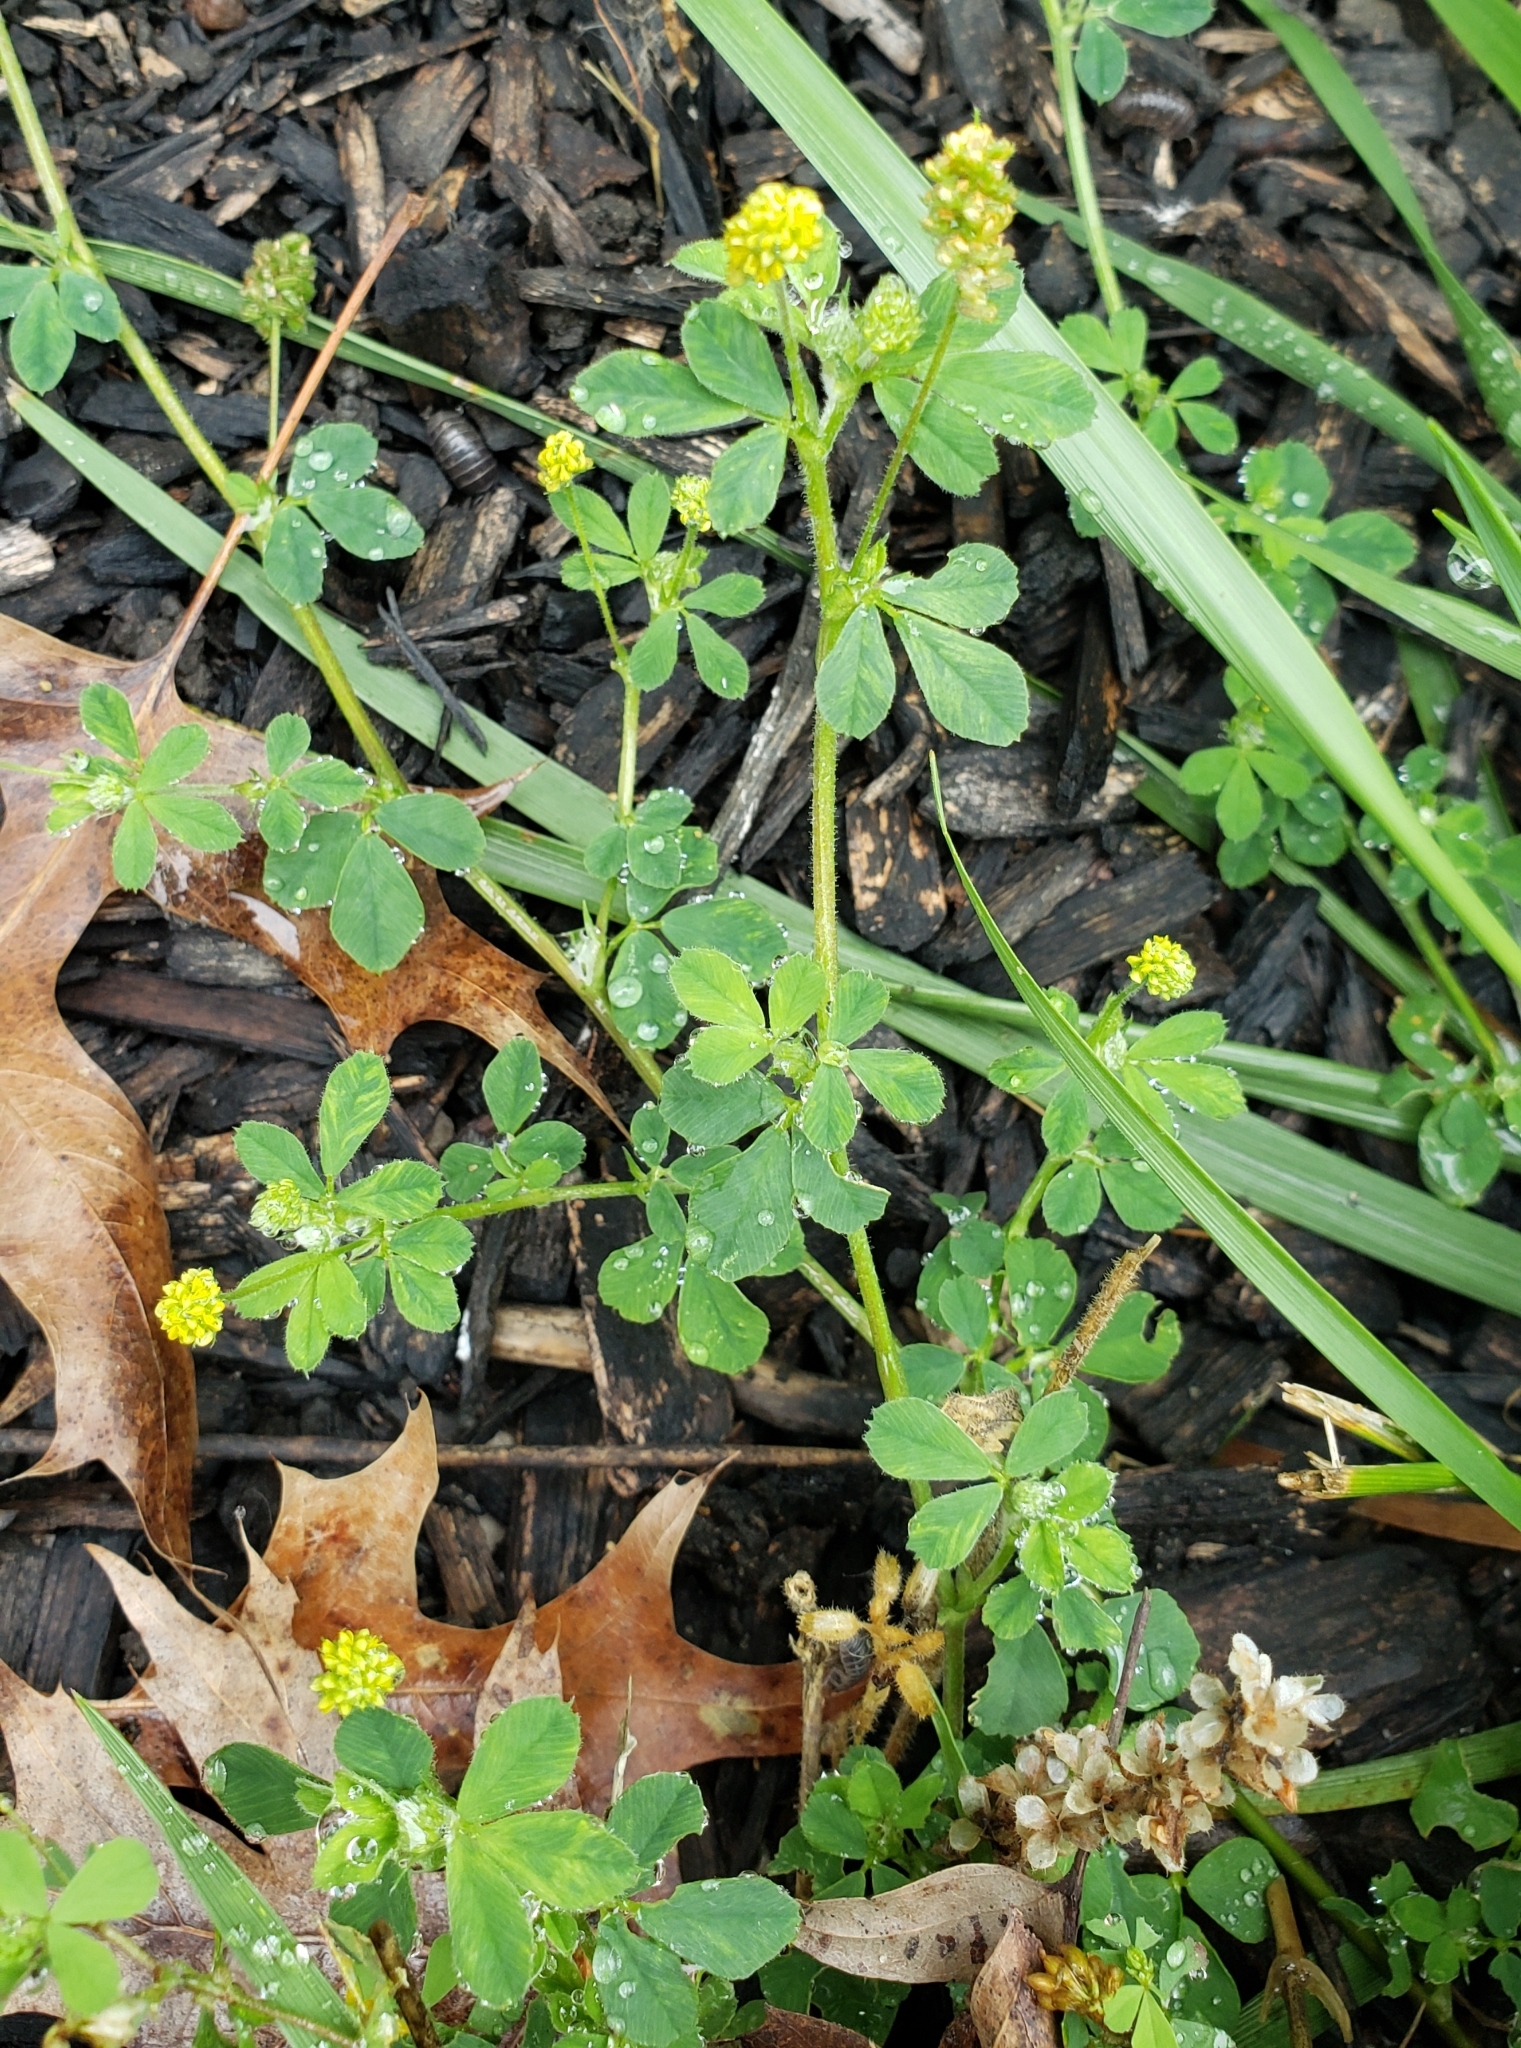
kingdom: Plantae
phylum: Tracheophyta
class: Magnoliopsida
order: Fabales
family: Fabaceae
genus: Medicago
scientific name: Medicago lupulina
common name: Black medick
